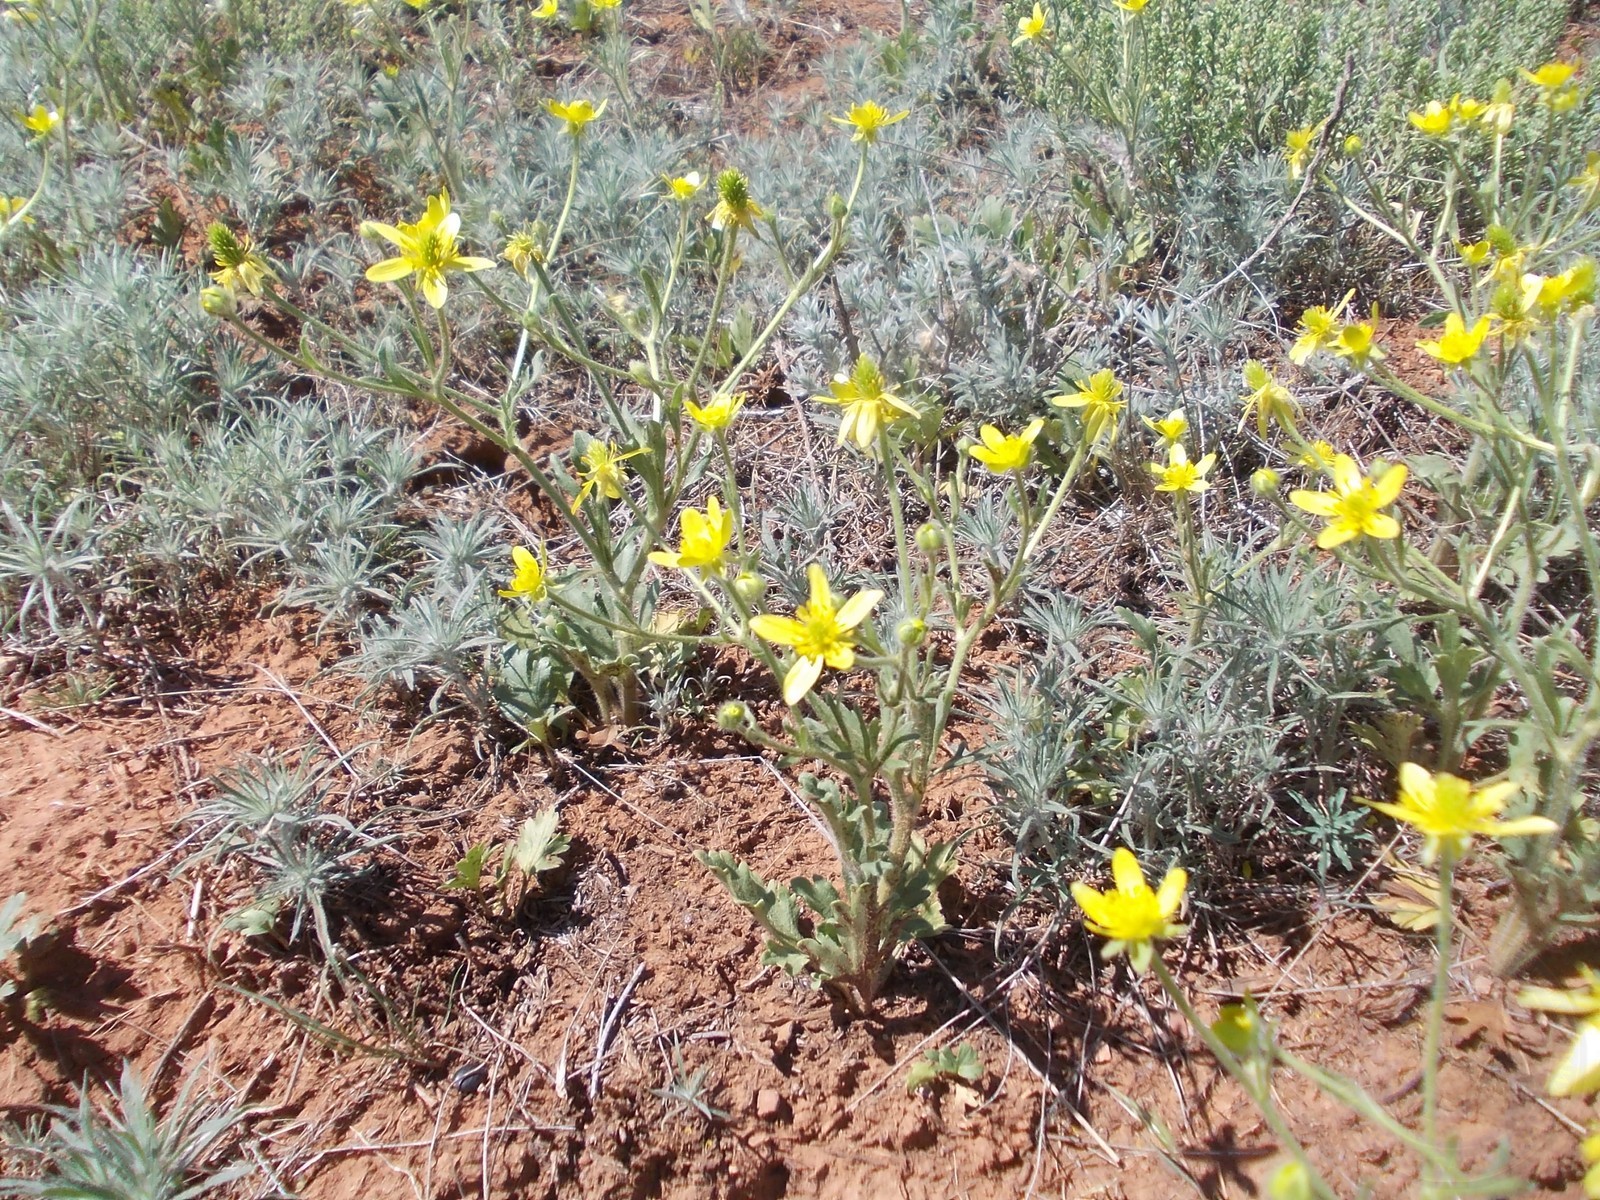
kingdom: Plantae
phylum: Tracheophyta
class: Magnoliopsida
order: Ranunculales
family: Ranunculaceae
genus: Ranunculus
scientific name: Ranunculus oxyspermus
